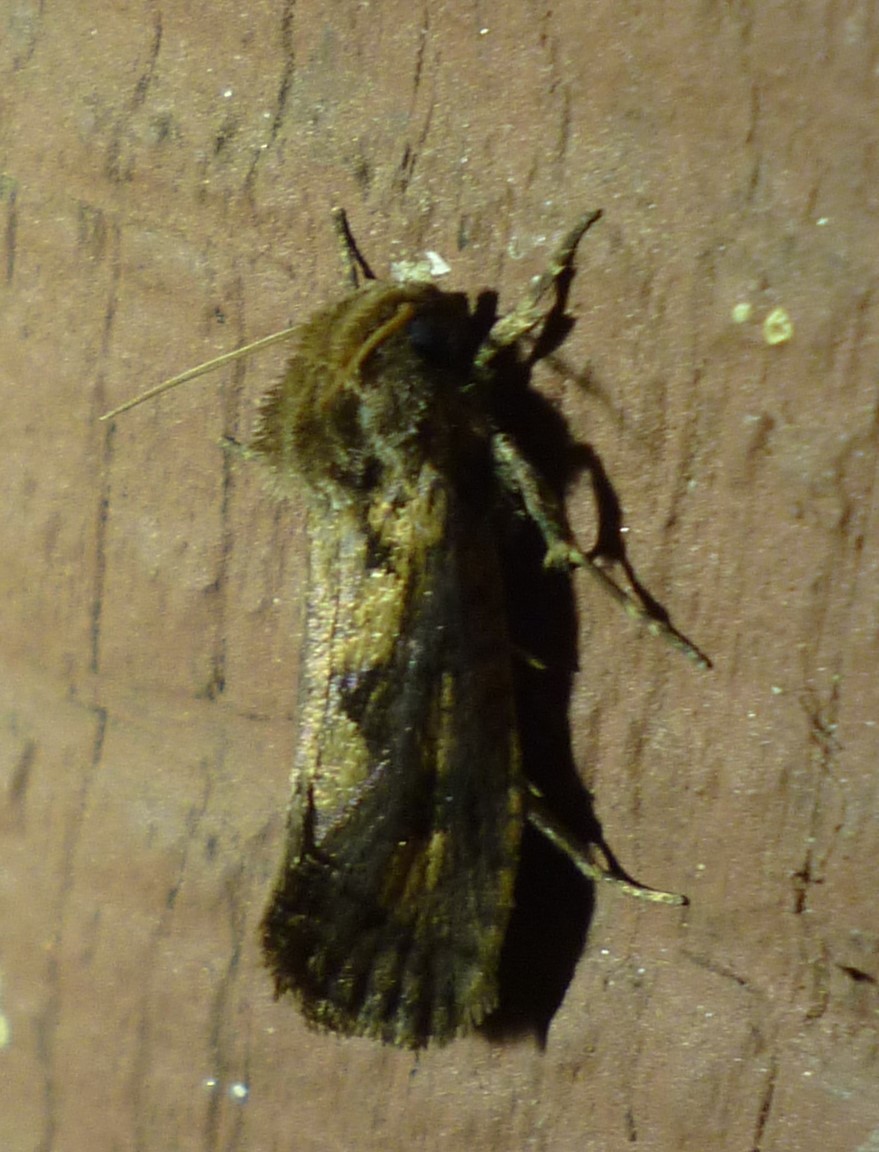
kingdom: Animalia
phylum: Arthropoda
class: Insecta
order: Lepidoptera
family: Tineidae
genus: Acrolophus
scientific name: Acrolophus popeanella
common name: Clemens' grass tubeworm moth
